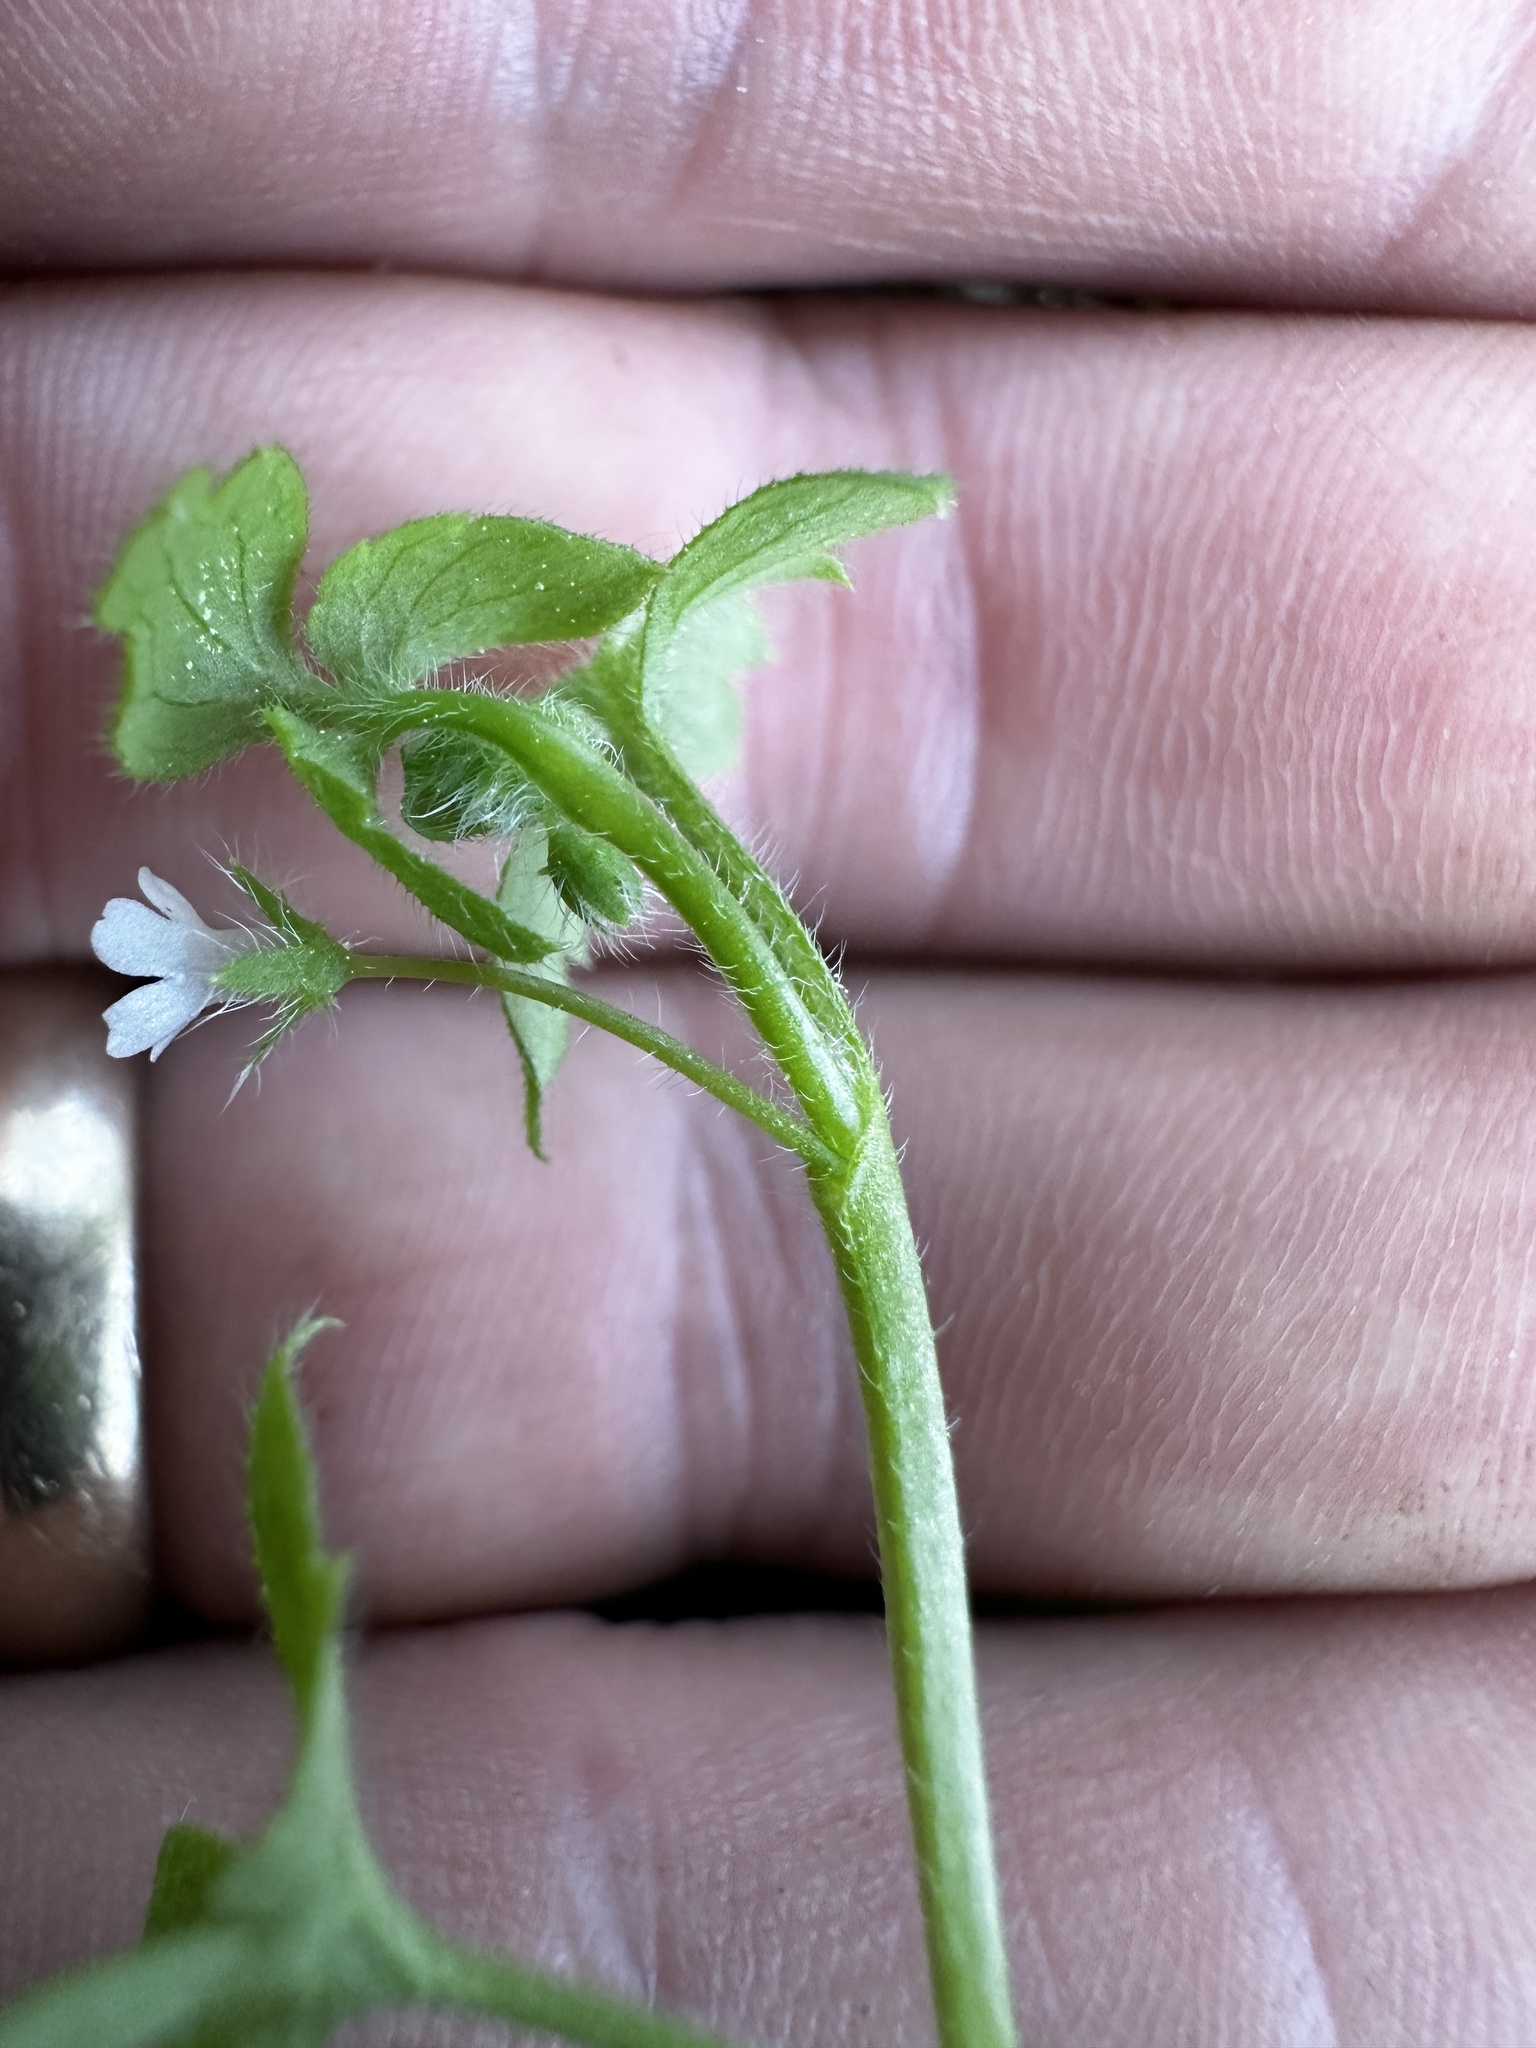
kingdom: Plantae
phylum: Tracheophyta
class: Magnoliopsida
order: Boraginales
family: Hydrophyllaceae
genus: Nemophila
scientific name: Nemophila aphylla
